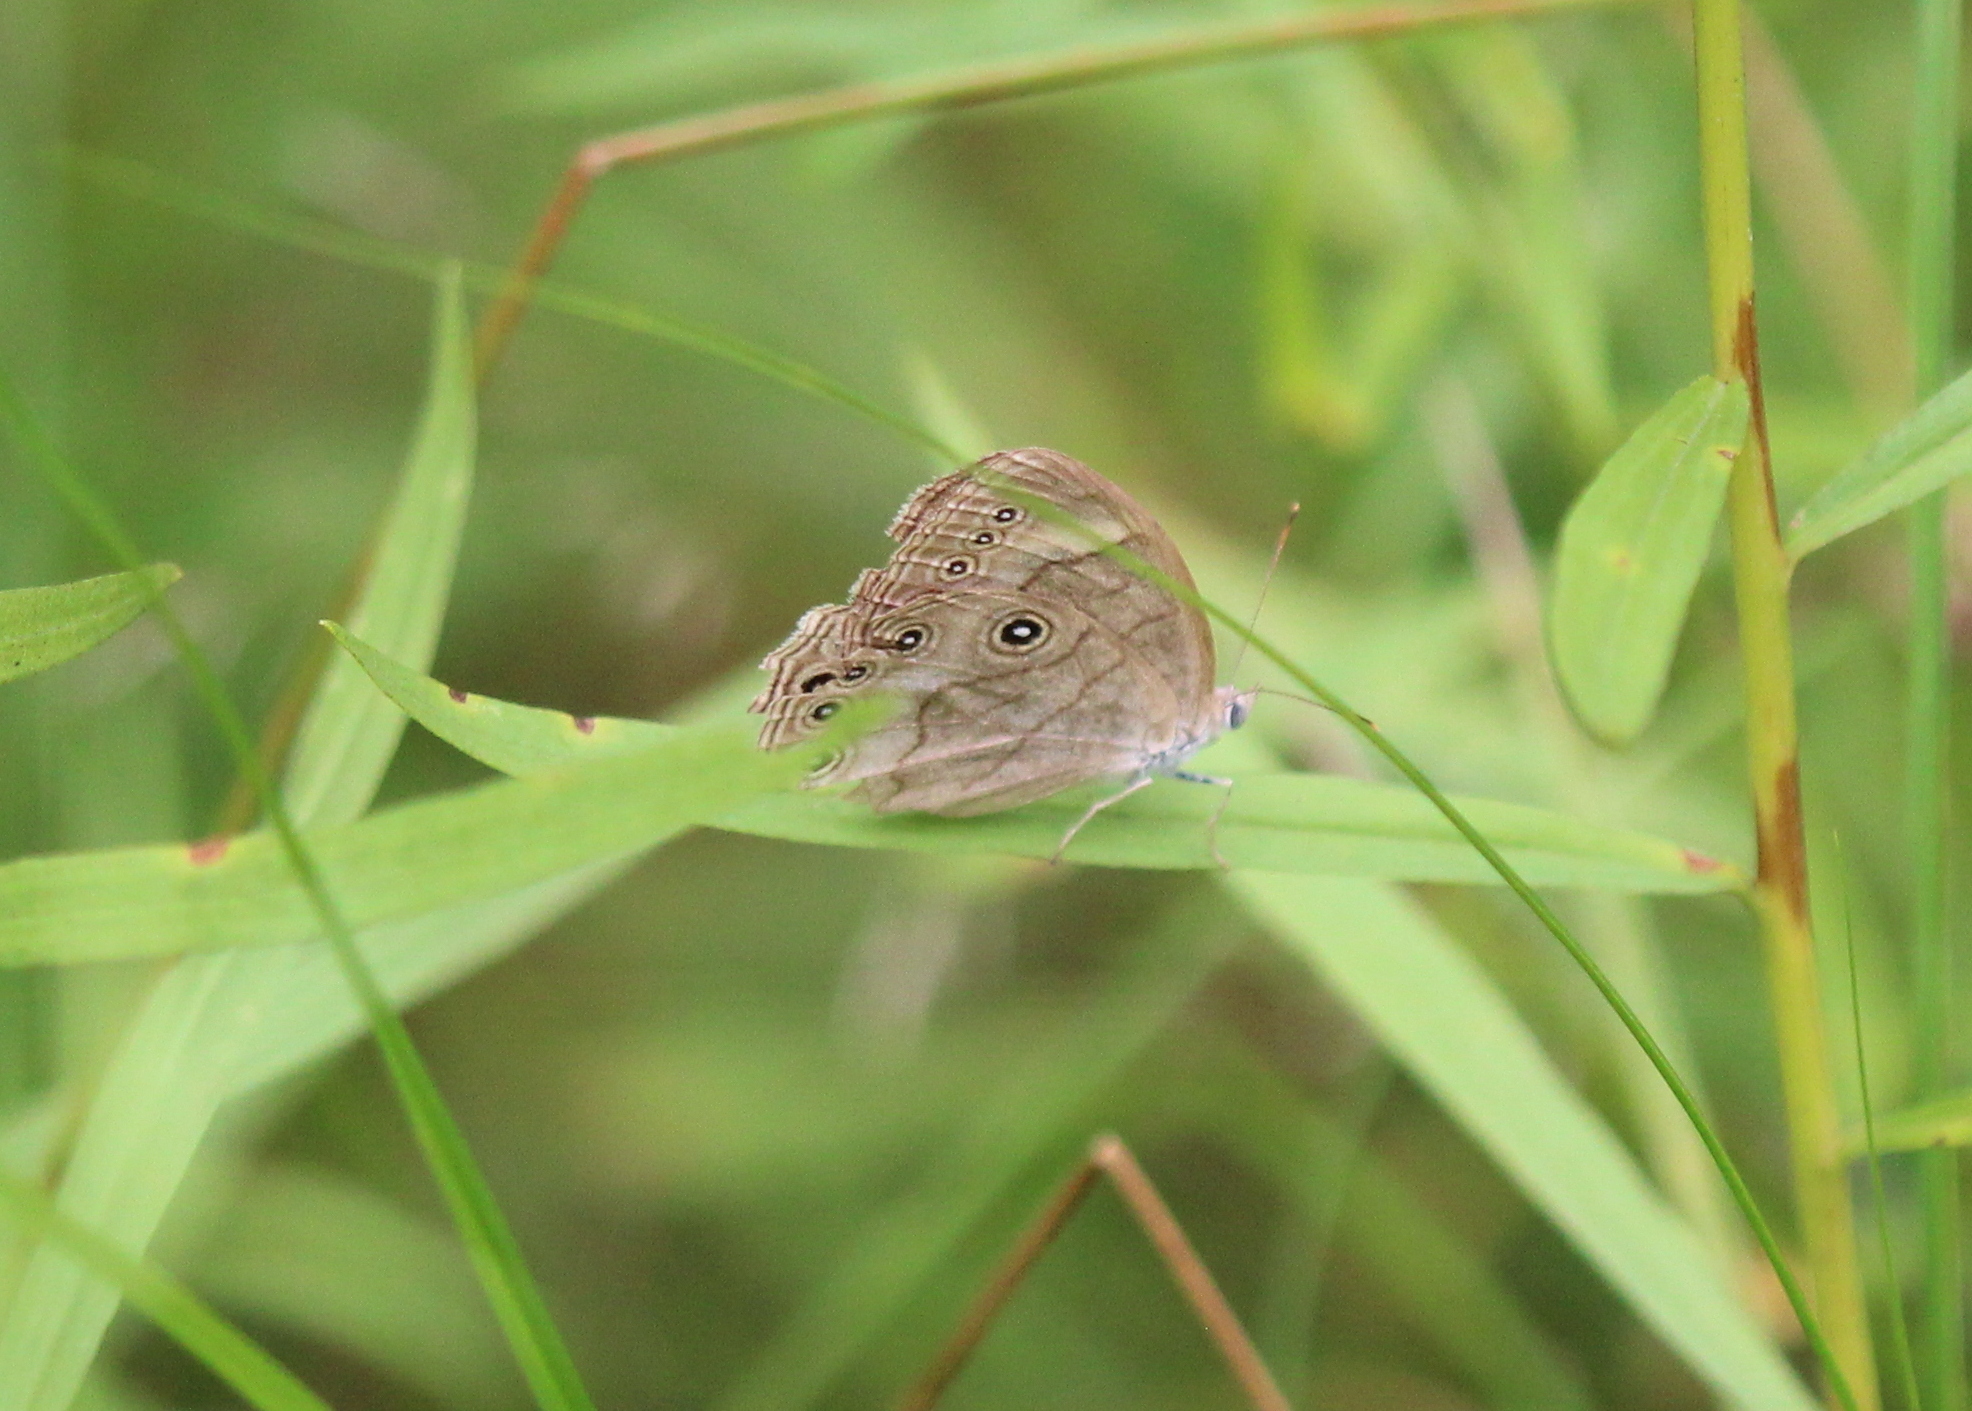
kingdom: Animalia
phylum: Arthropoda
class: Insecta
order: Lepidoptera
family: Nymphalidae
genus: Lethe
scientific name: Lethe eurydice
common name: Eyed brown
